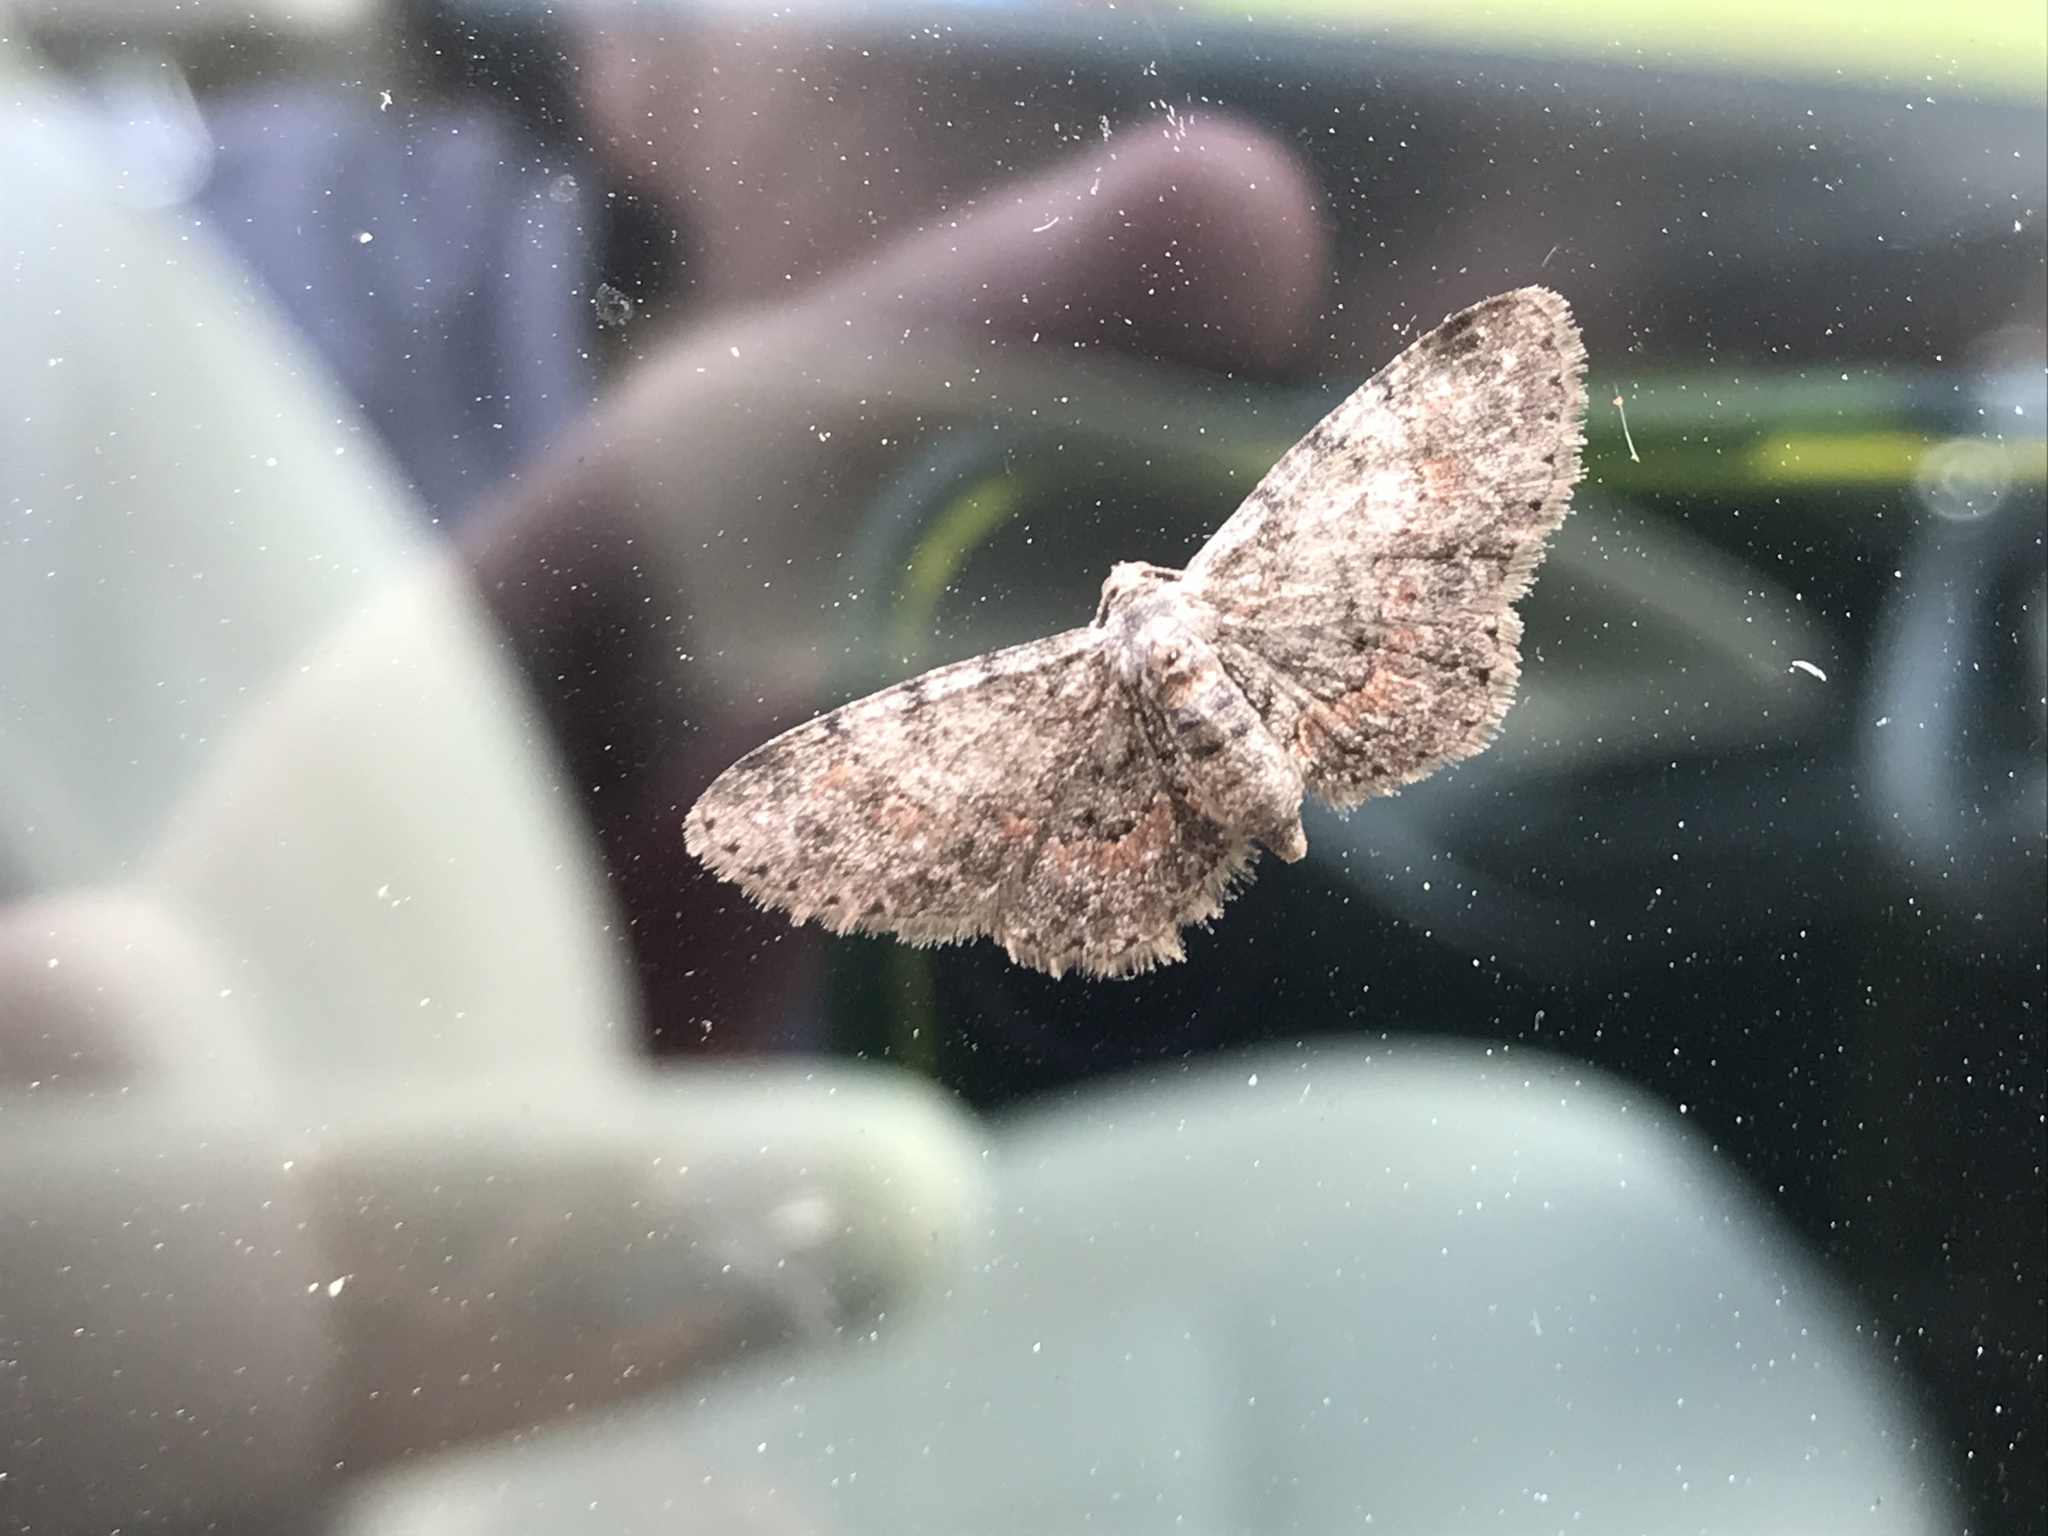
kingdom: Animalia
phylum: Arthropoda
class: Insecta
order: Lepidoptera
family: Geometridae
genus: Glenoides
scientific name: Glenoides texanaria
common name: Texas gray
